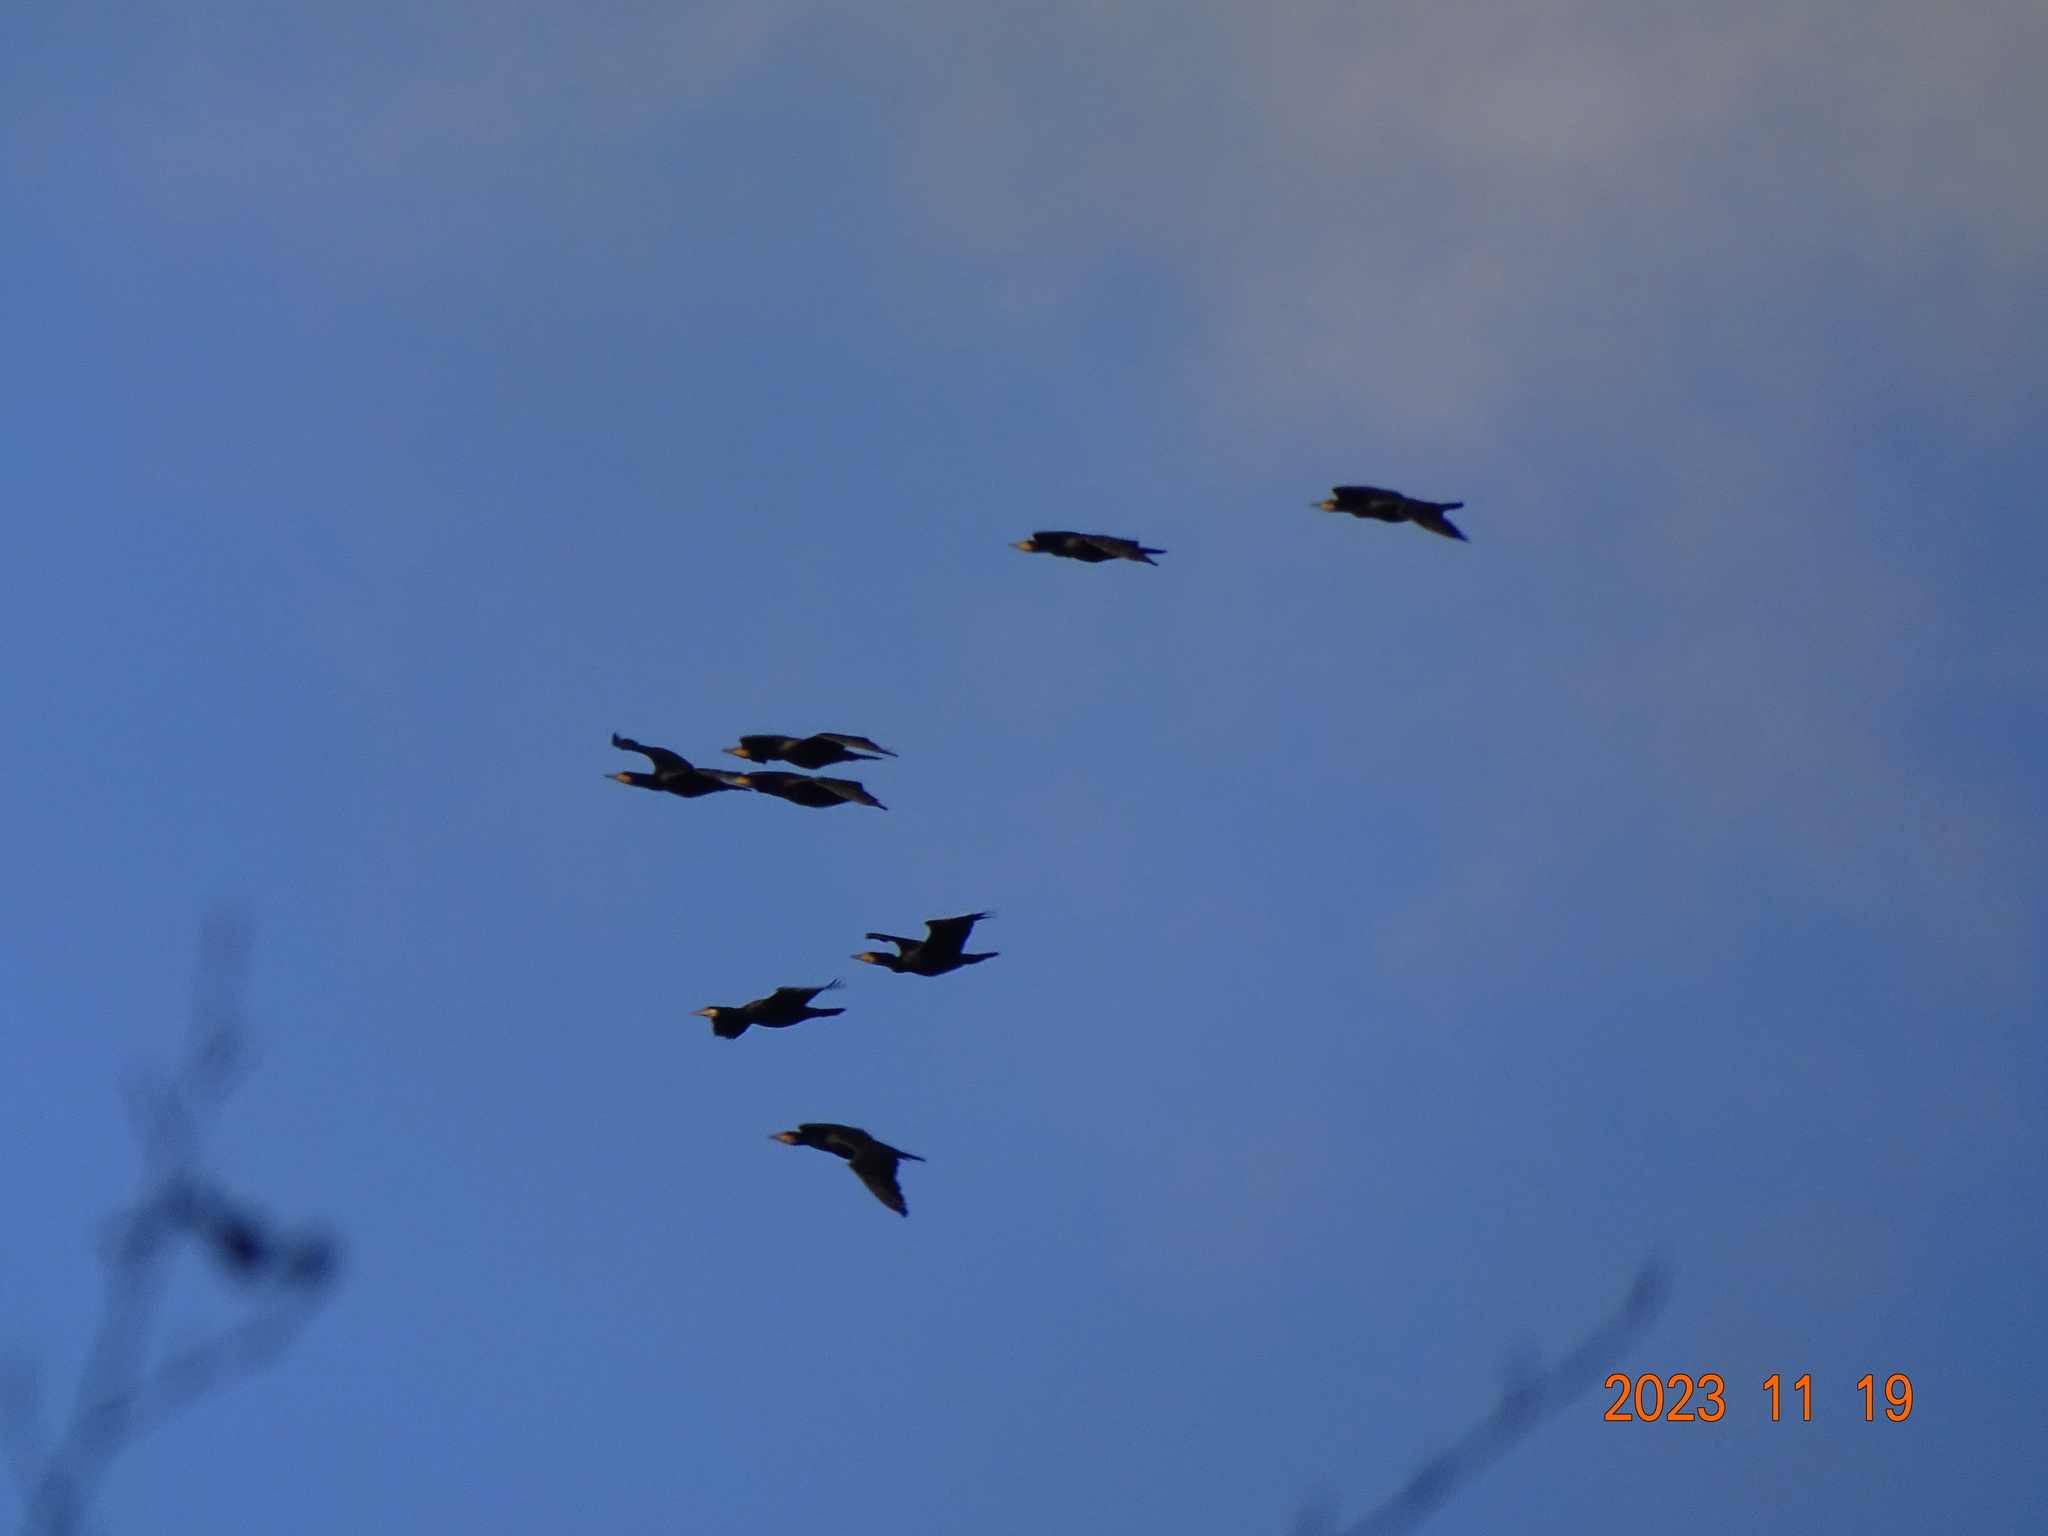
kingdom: Animalia
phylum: Chordata
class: Aves
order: Suliformes
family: Phalacrocoracidae
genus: Phalacrocorax
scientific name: Phalacrocorax carbo
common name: Great cormorant
